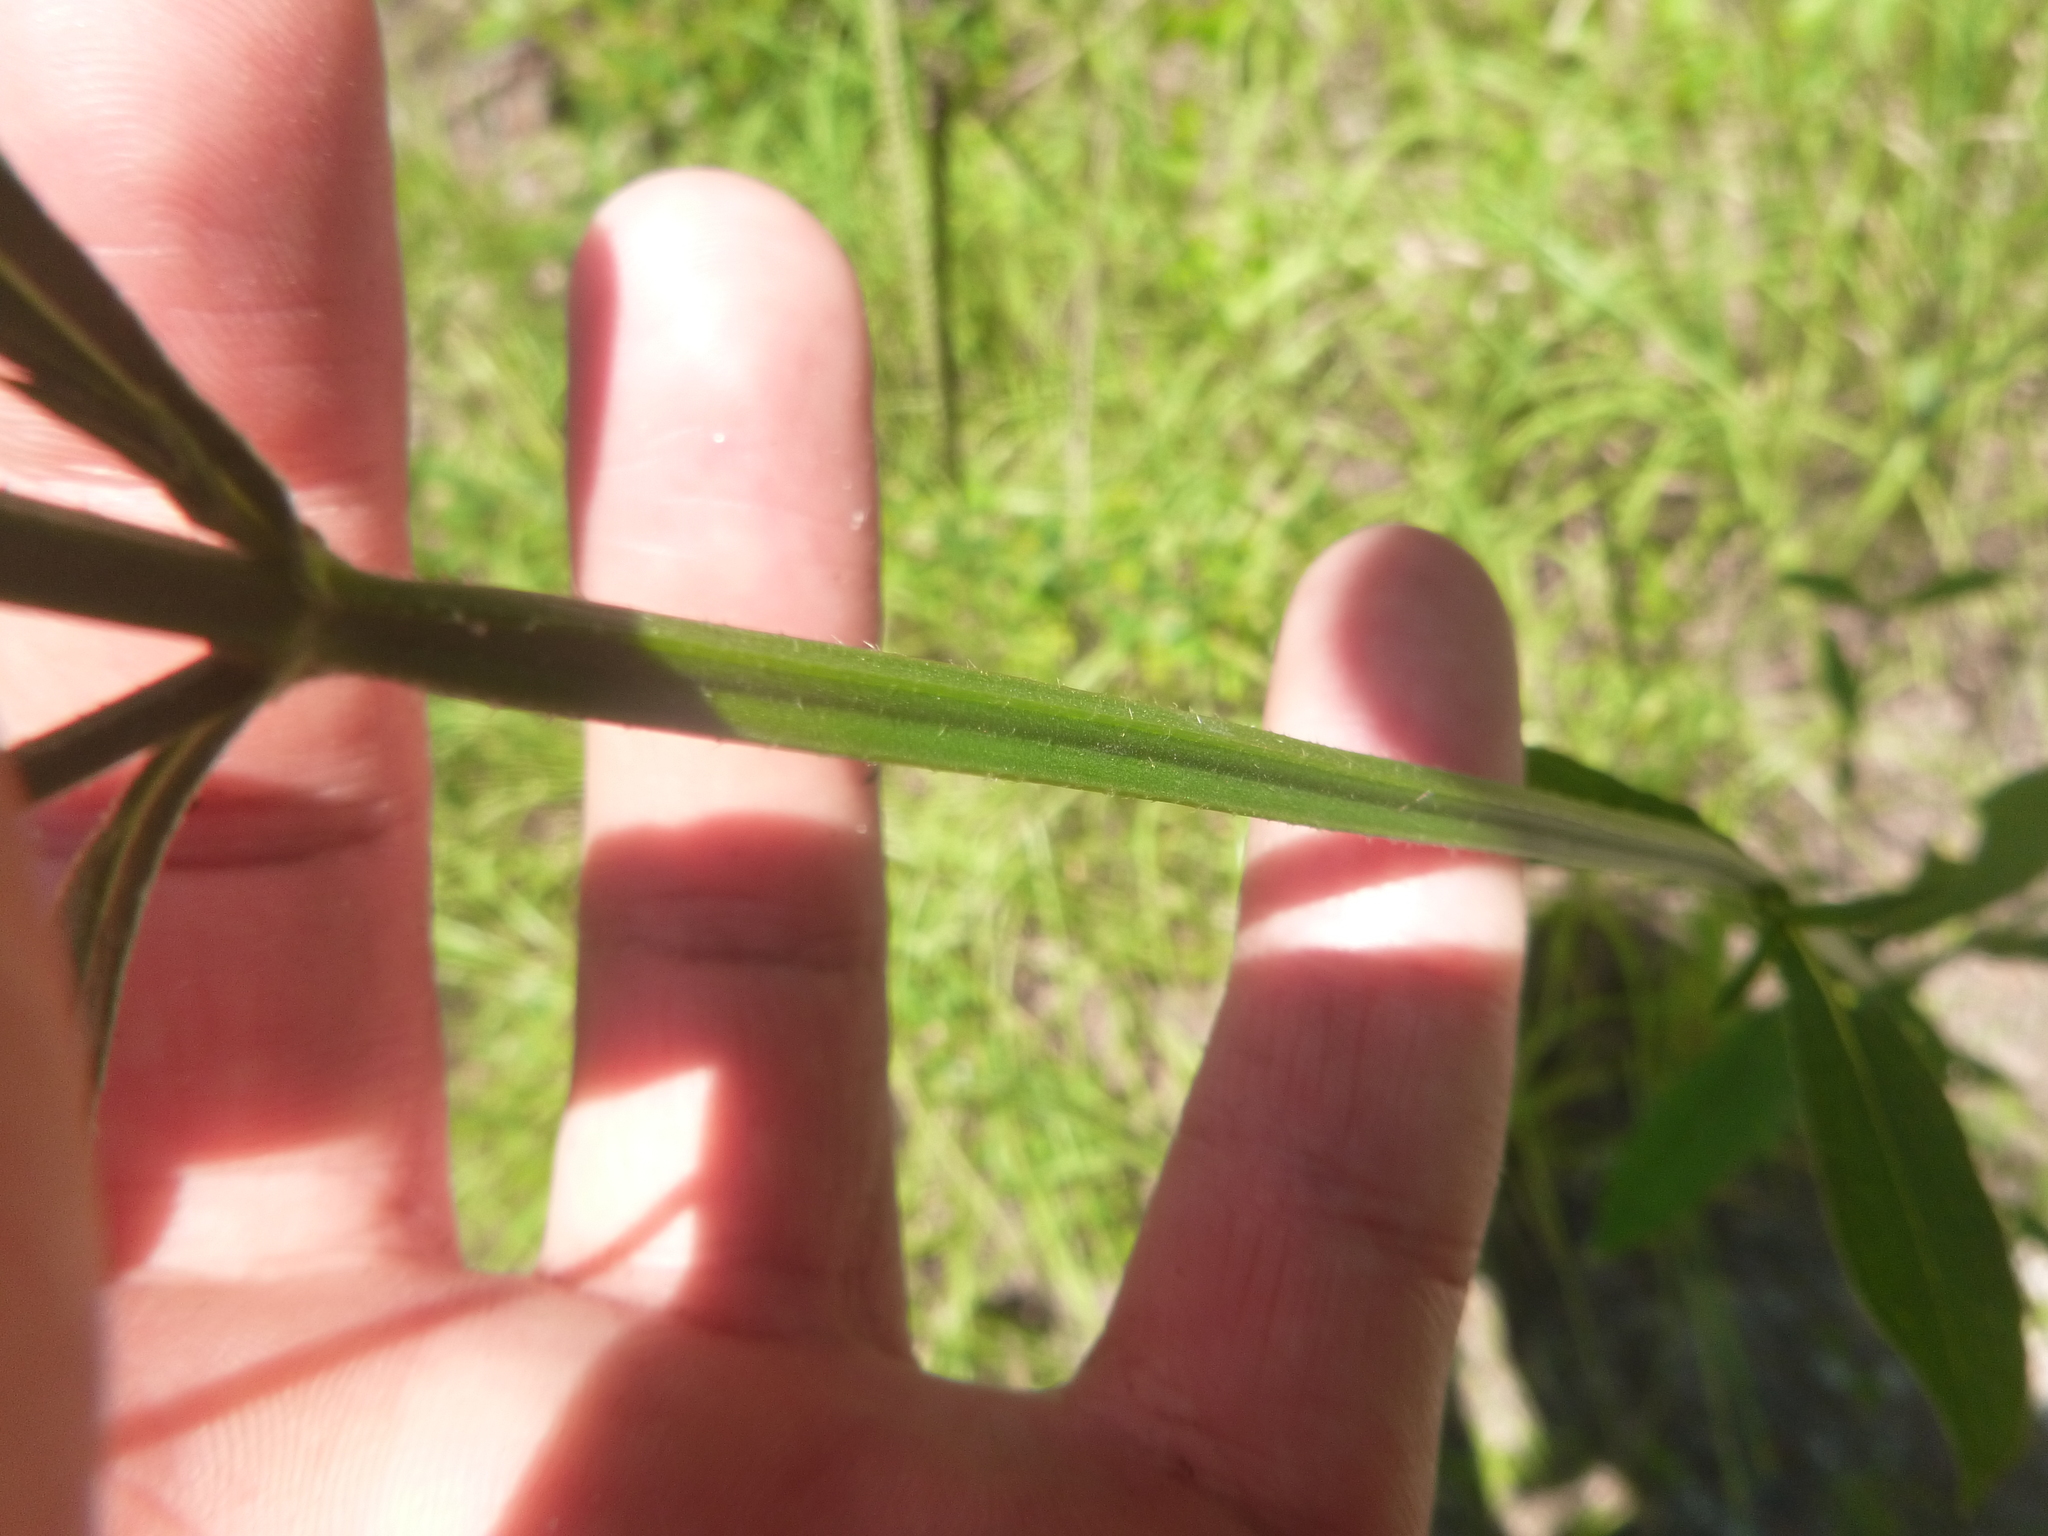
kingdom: Plantae
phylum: Tracheophyta
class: Magnoliopsida
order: Lamiales
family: Verbenaceae
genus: Verbena
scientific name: Verbena brasiliensis
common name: Brazilian vervain
